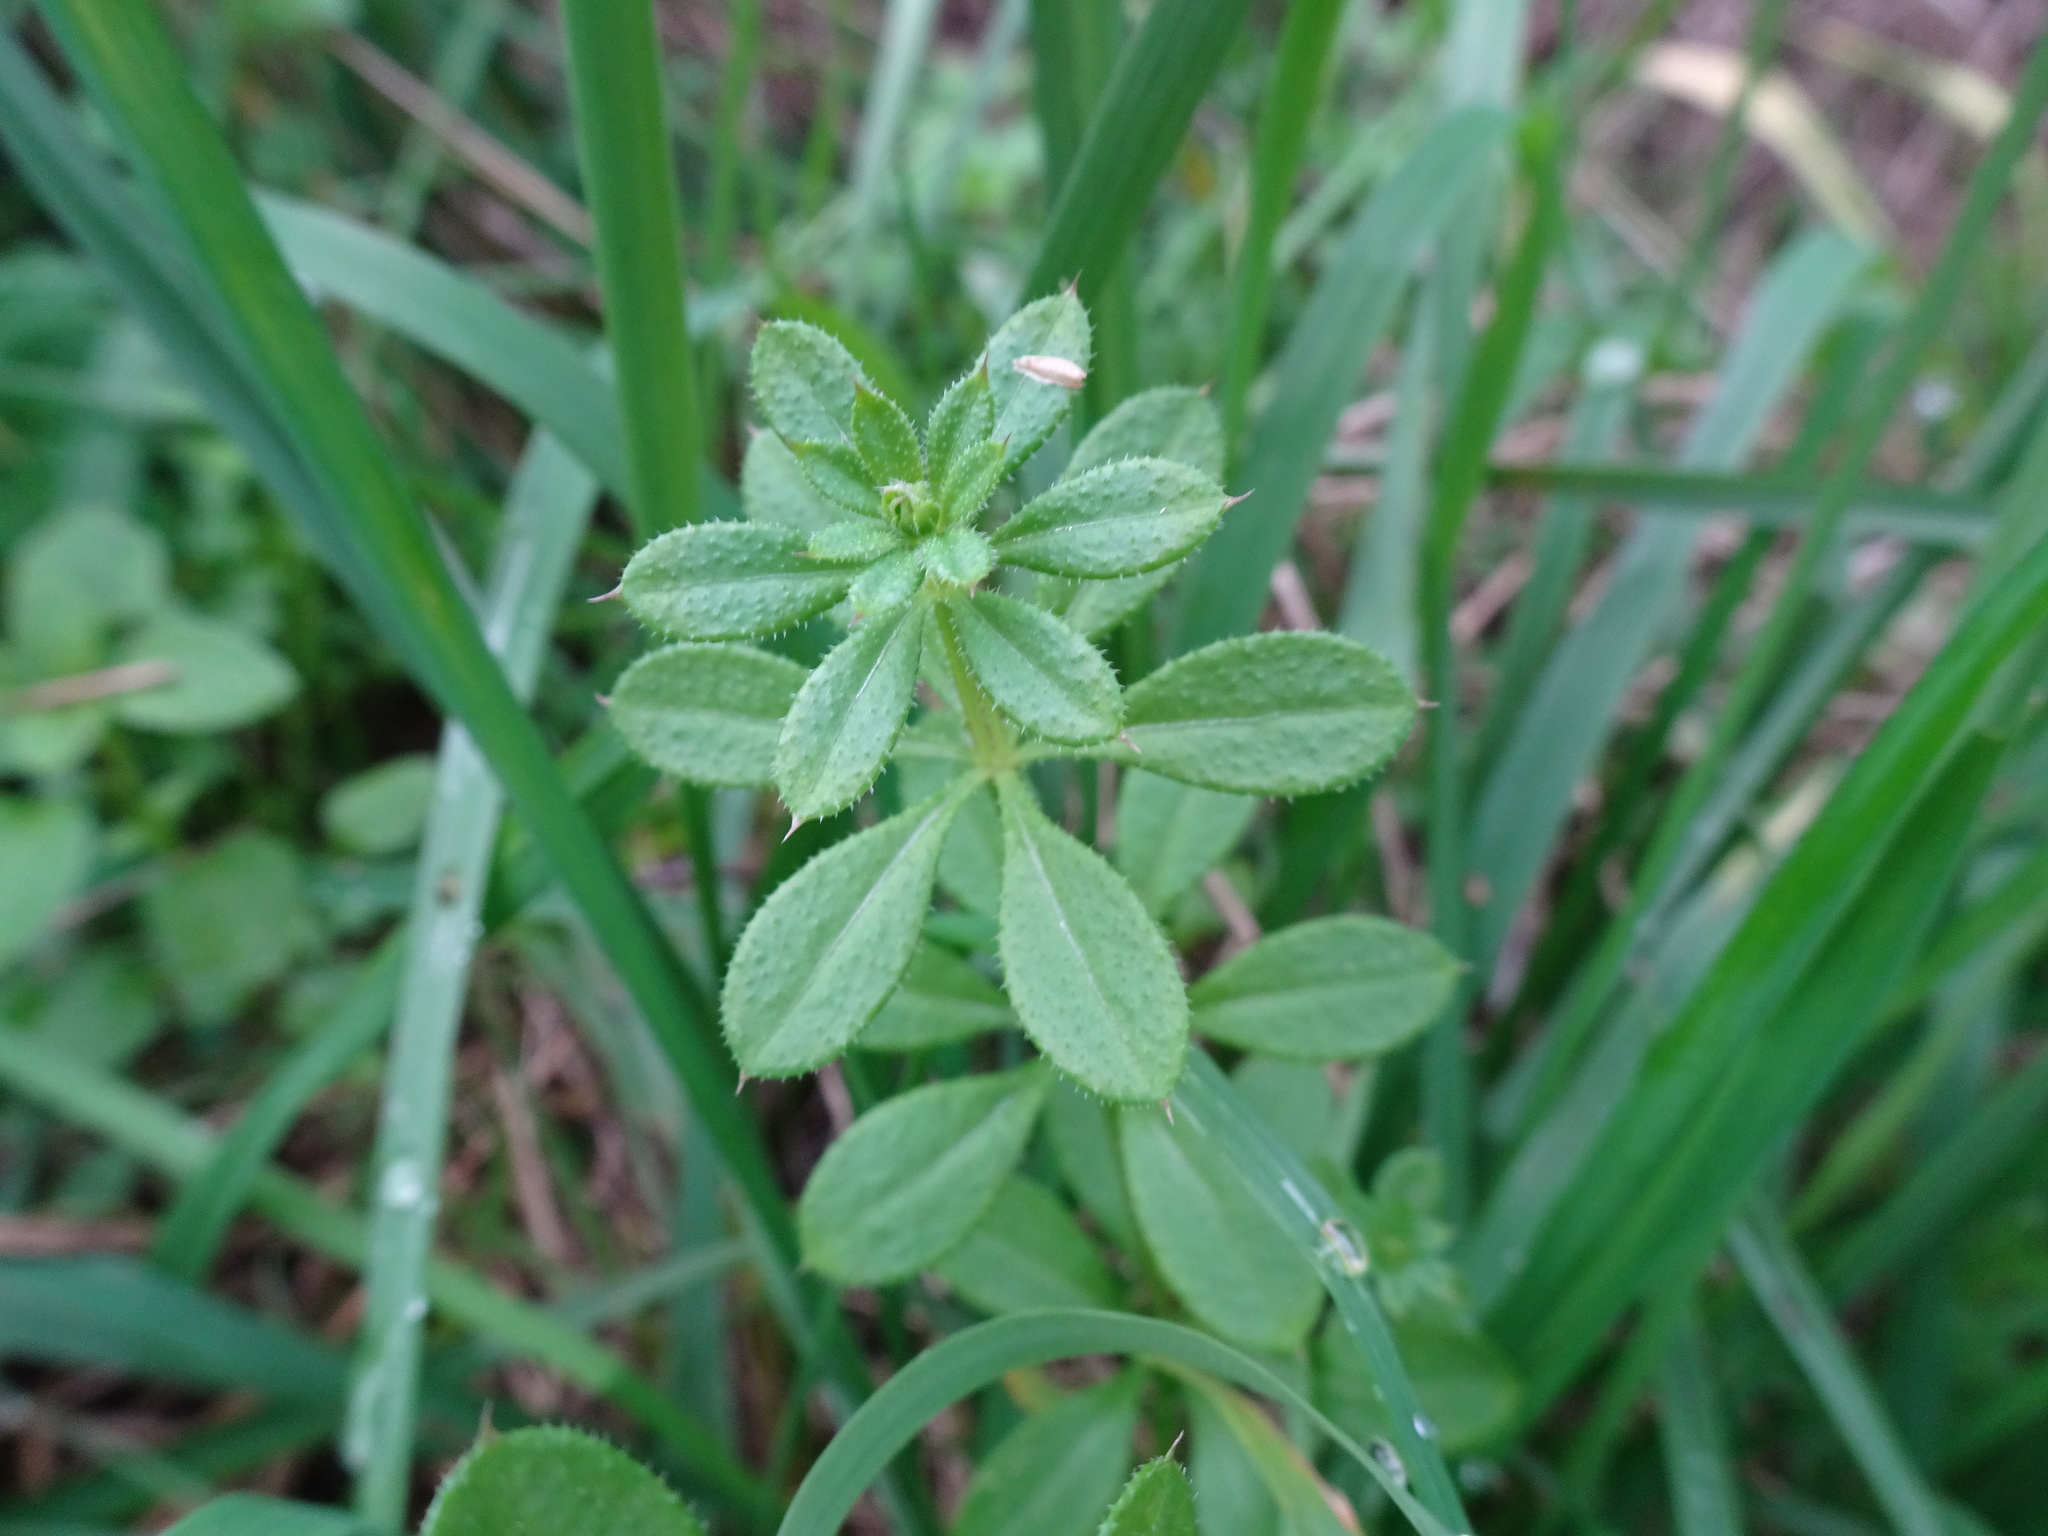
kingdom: Plantae
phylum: Tracheophyta
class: Magnoliopsida
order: Gentianales
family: Rubiaceae
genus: Galium
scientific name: Galium aparine
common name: Cleavers
